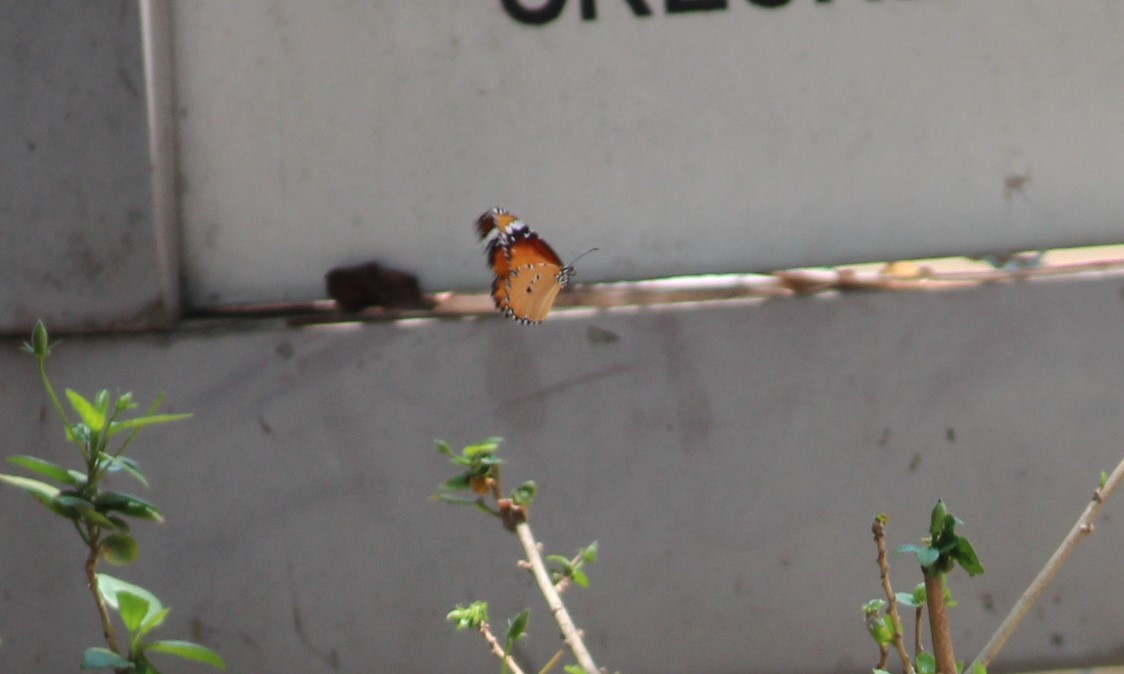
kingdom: Animalia
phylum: Arthropoda
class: Insecta
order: Lepidoptera
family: Nymphalidae
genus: Danaus
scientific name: Danaus chrysippus
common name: Plain tiger
